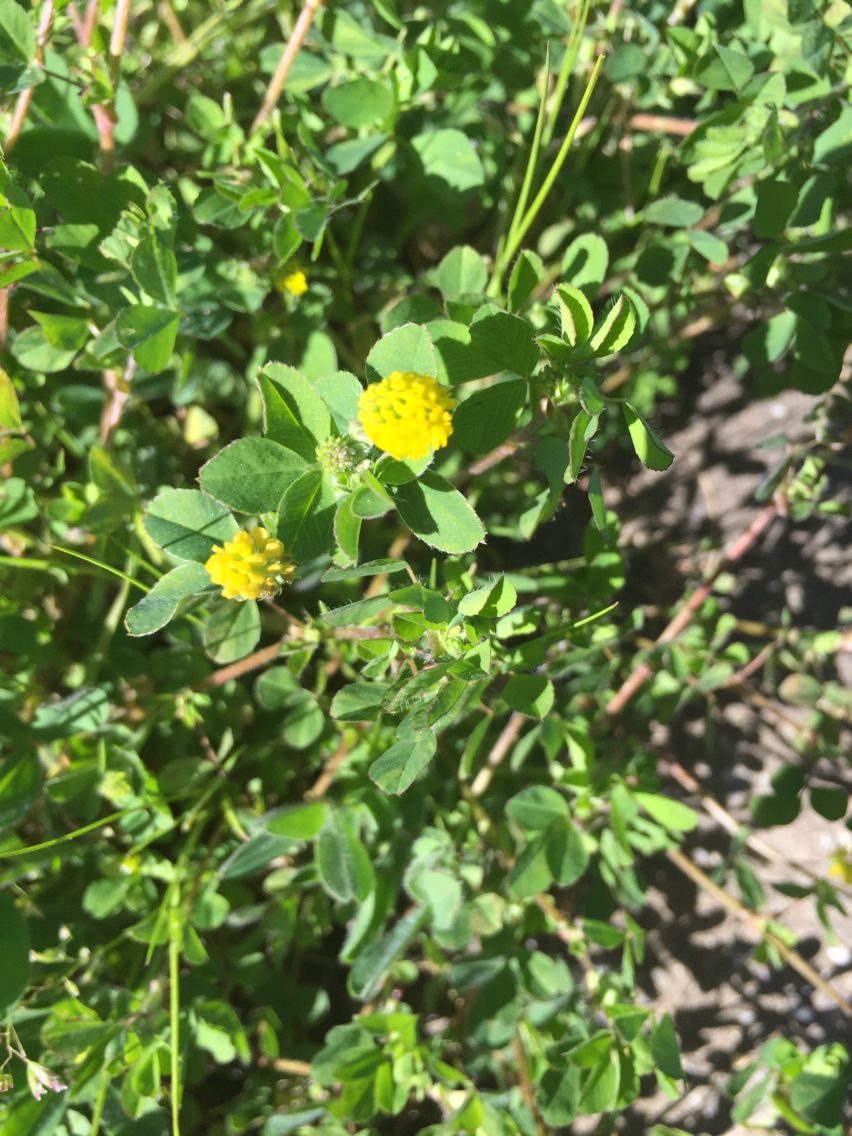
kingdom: Plantae
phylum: Tracheophyta
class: Magnoliopsida
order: Fabales
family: Fabaceae
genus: Medicago
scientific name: Medicago lupulina
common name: Black medick
